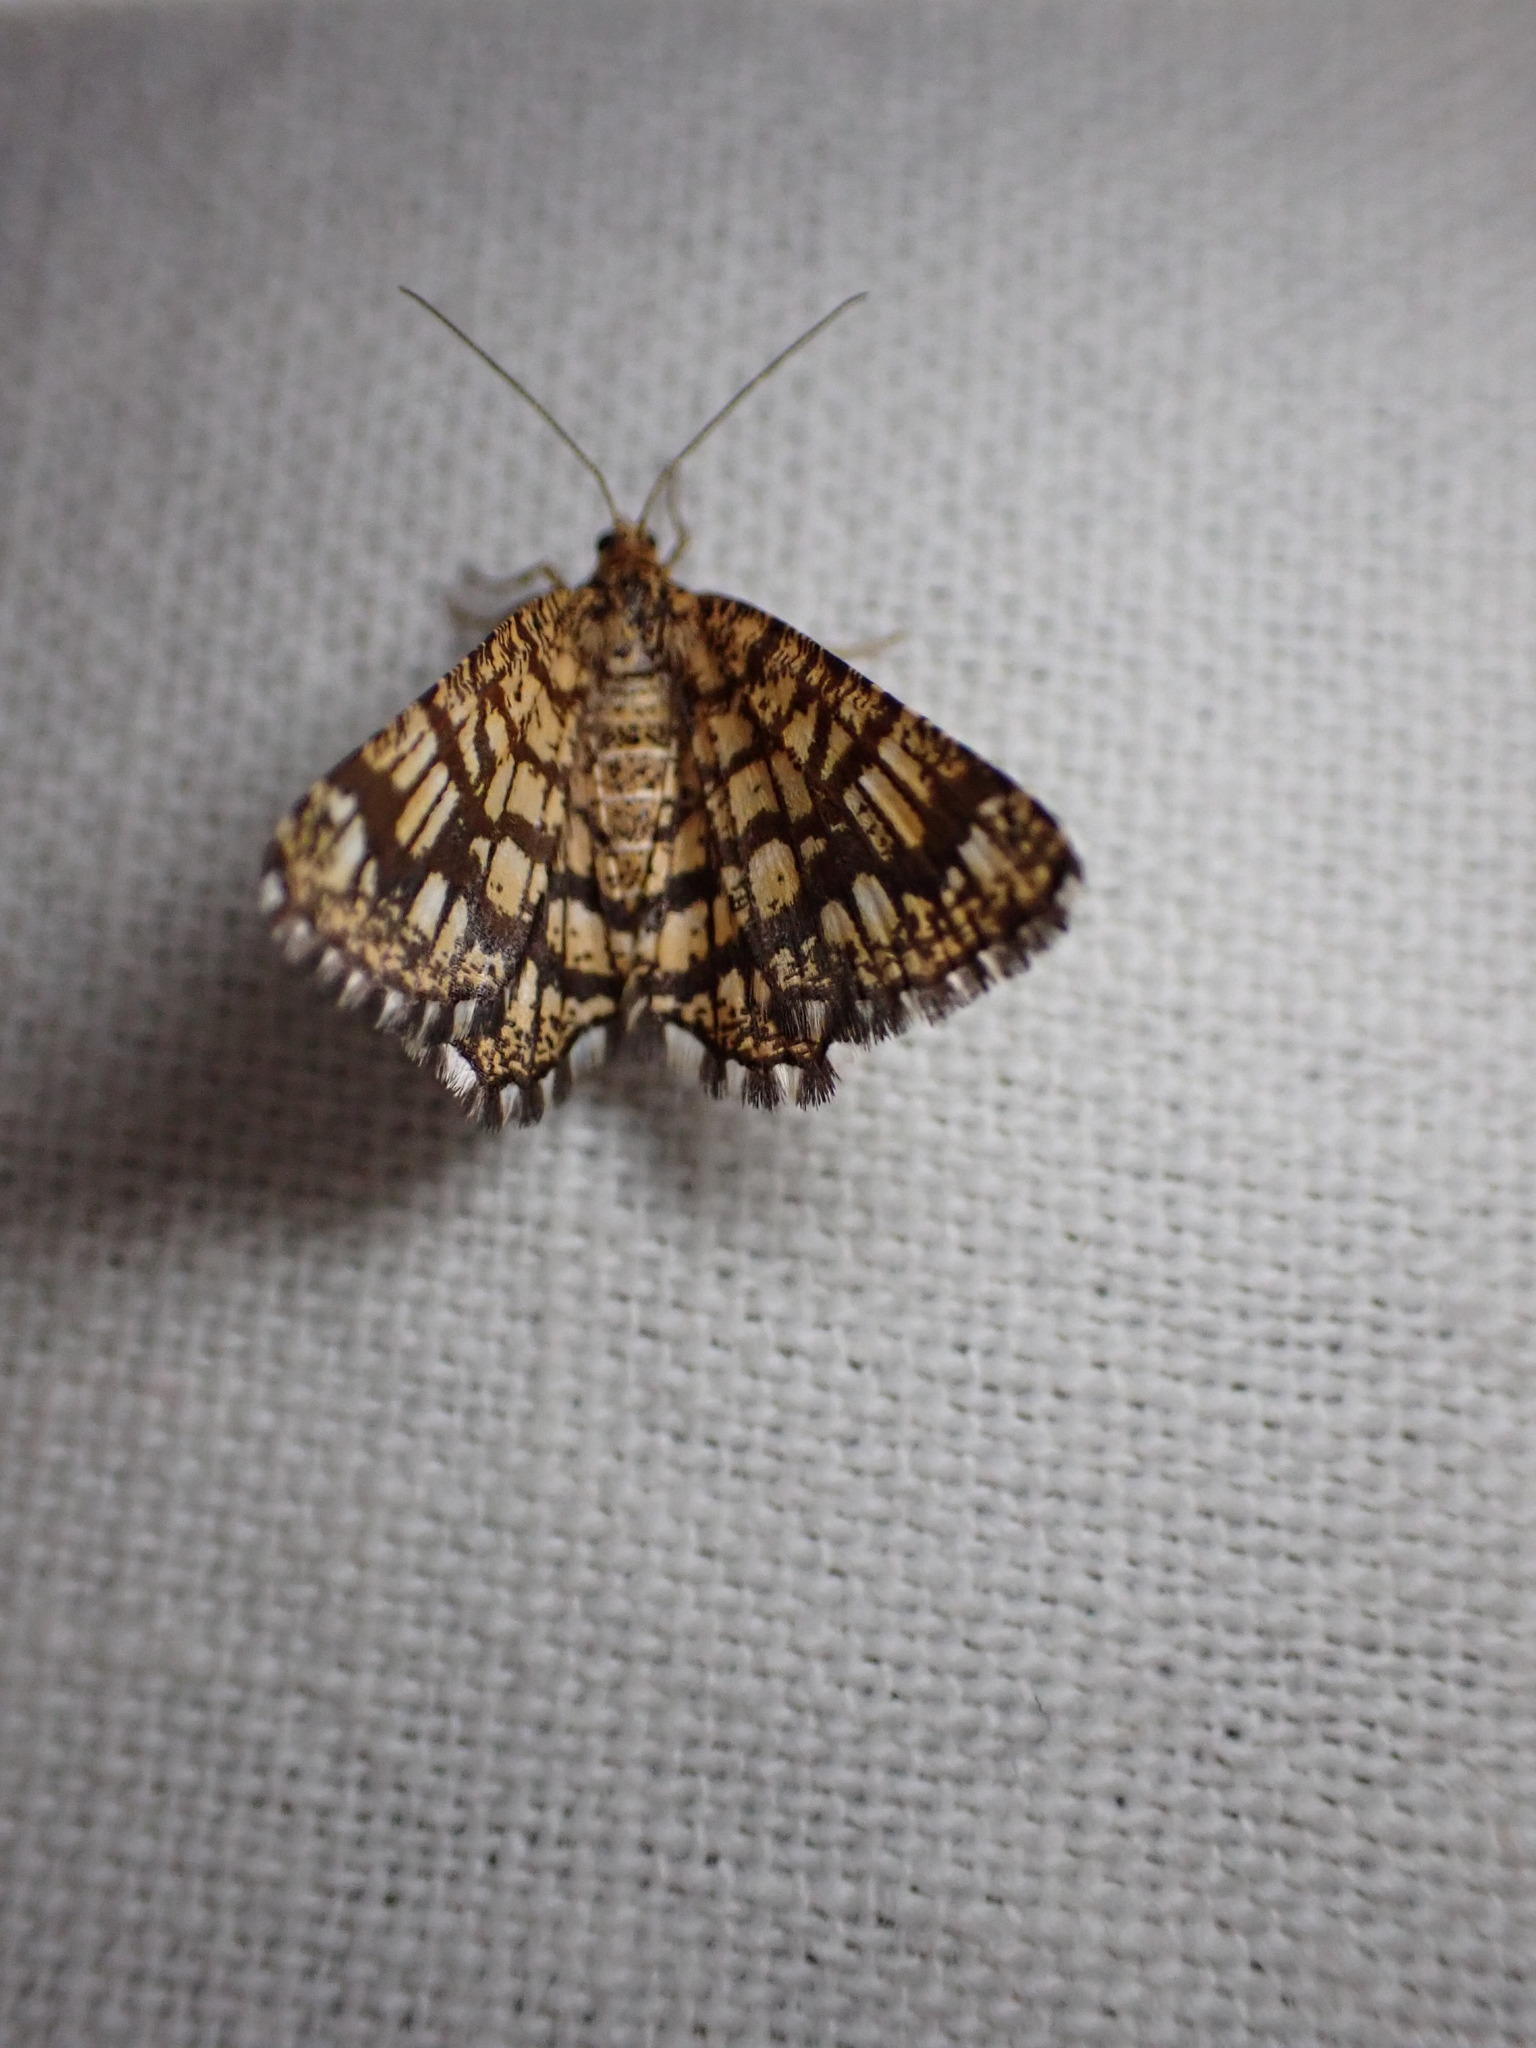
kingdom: Animalia
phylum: Arthropoda
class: Insecta
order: Lepidoptera
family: Geometridae
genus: Chiasmia
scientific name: Chiasmia clathrata
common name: Latticed heath
